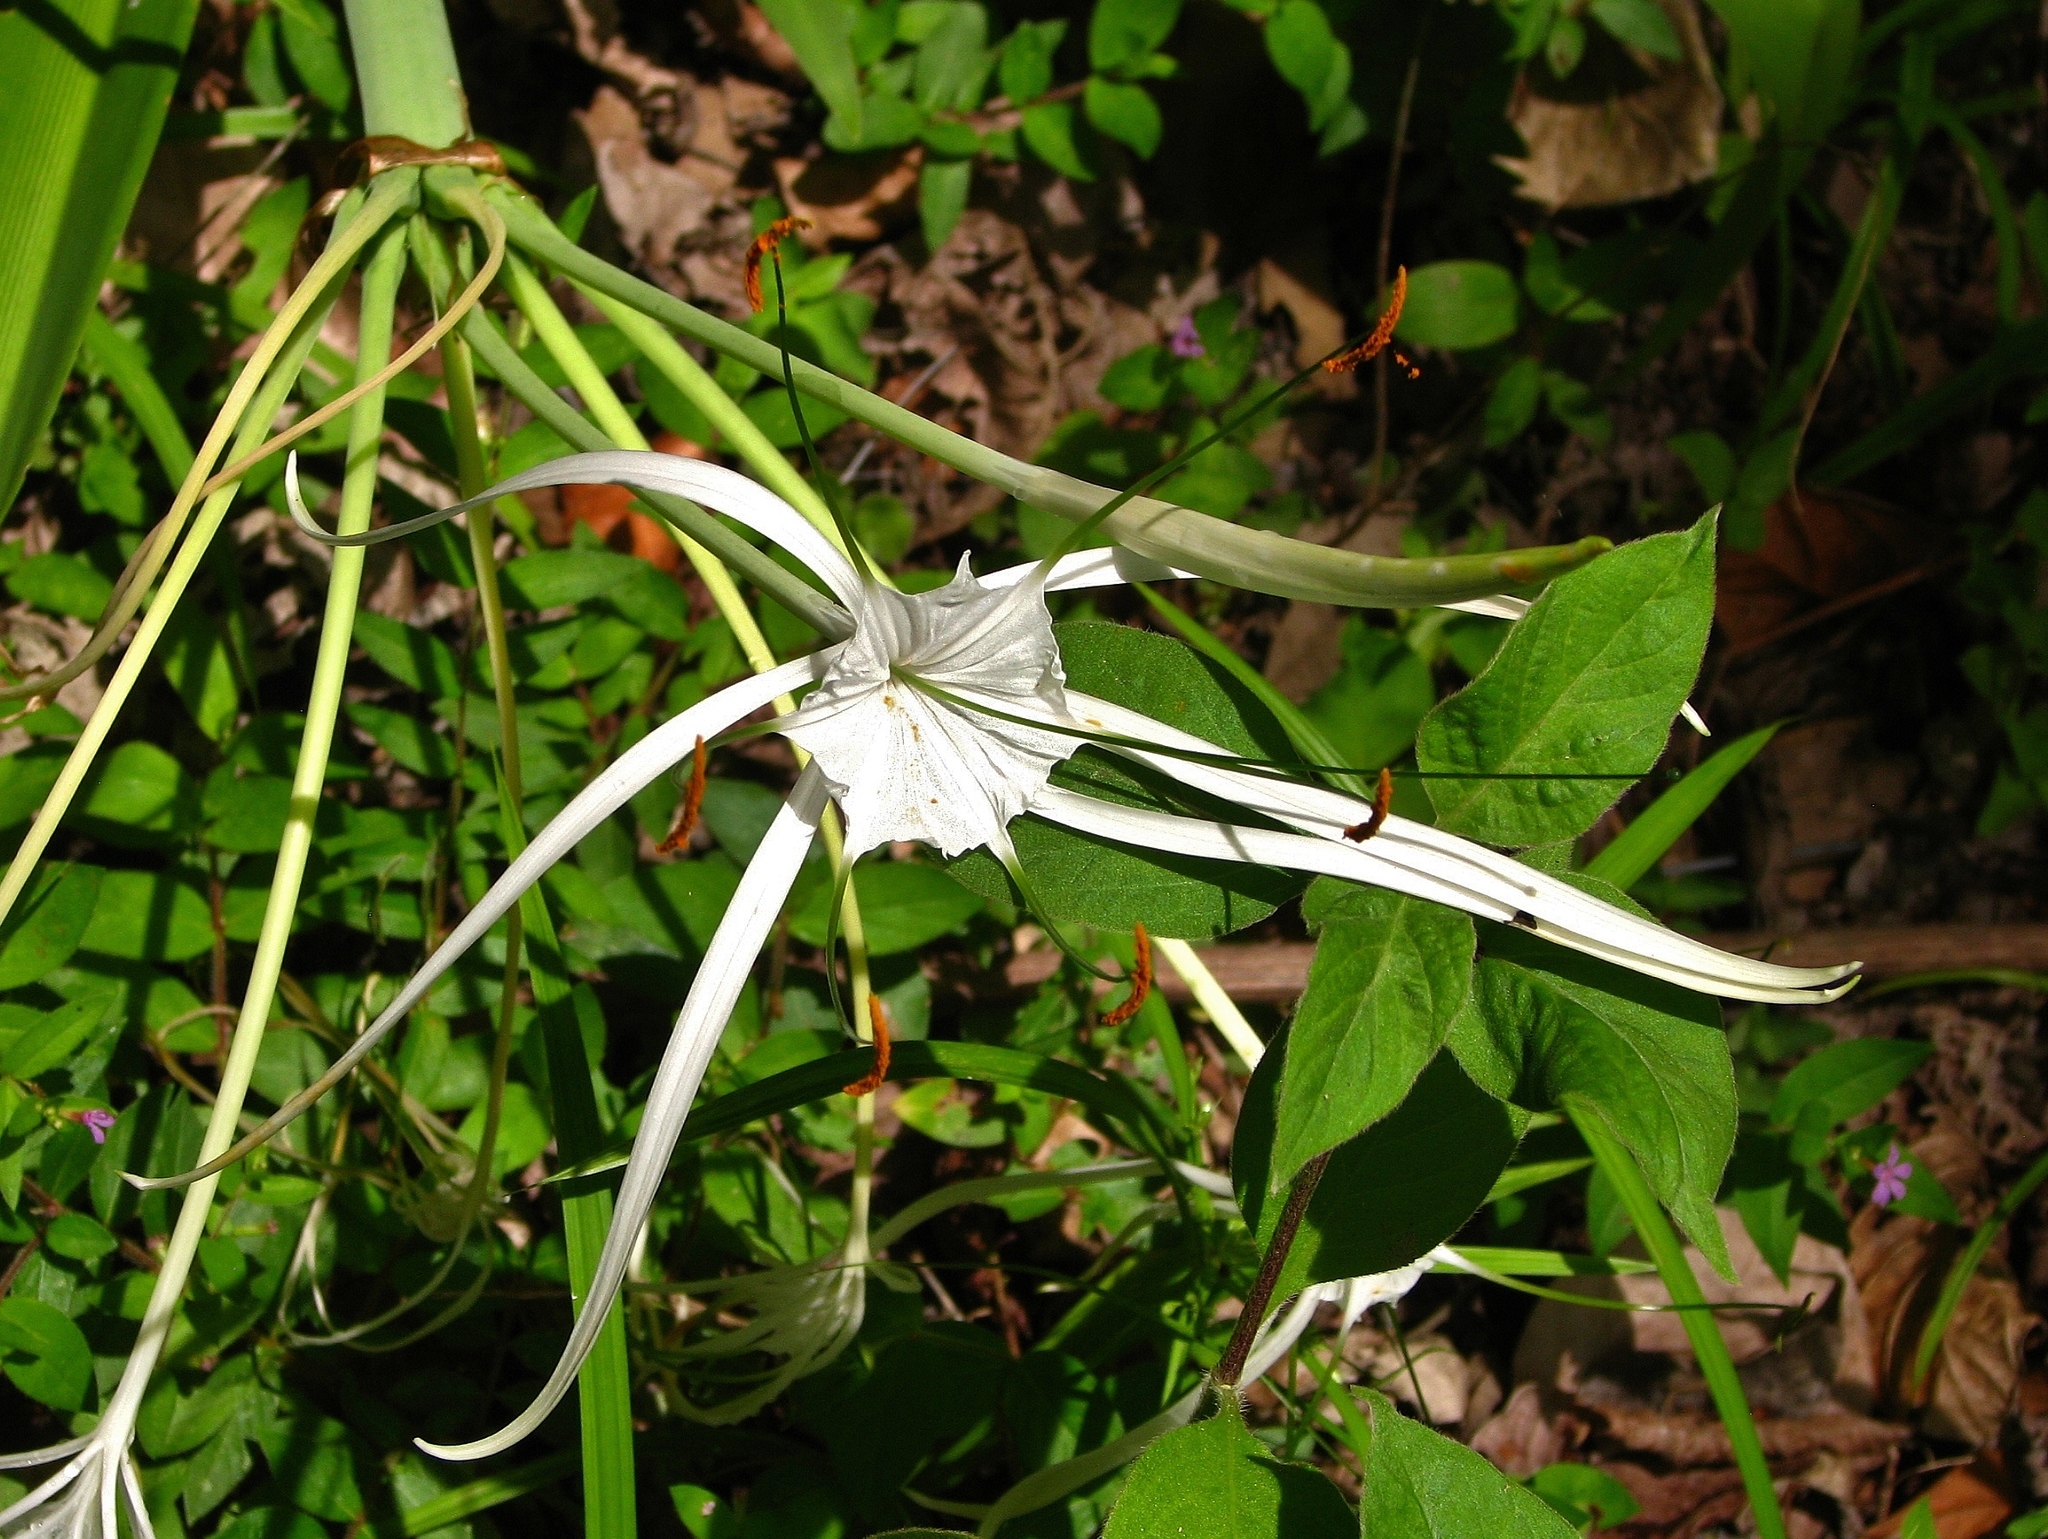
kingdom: Plantae
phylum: Tracheophyta
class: Liliopsida
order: Asparagales
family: Amaryllidaceae
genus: Hymenocallis
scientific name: Hymenocallis littoralis
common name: Beach spiderlily
